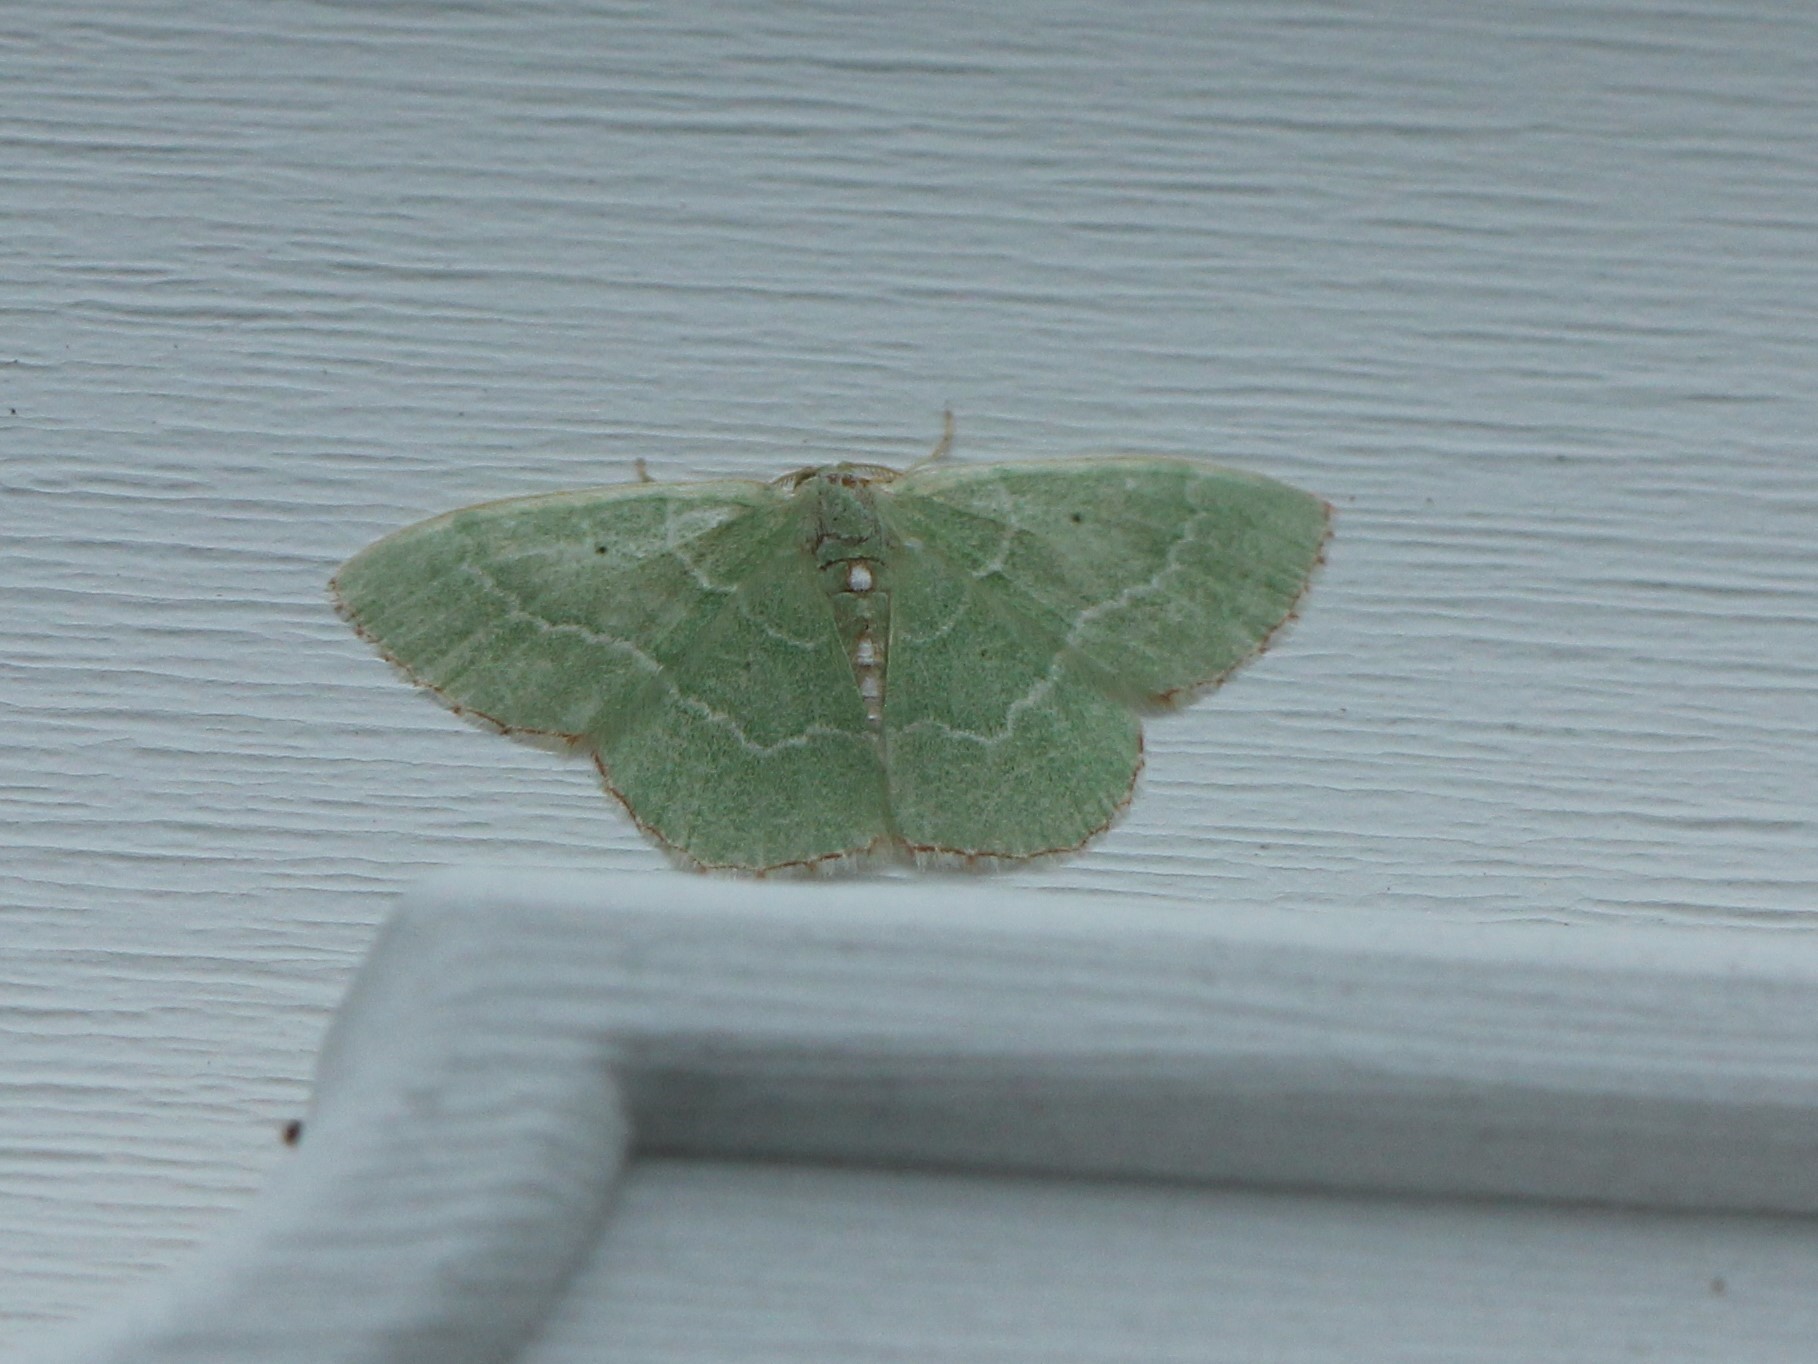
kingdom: Animalia
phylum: Arthropoda
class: Insecta
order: Lepidoptera
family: Geometridae
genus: Nemoria
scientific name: Nemoria lixaria
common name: Red-bordered emerald
